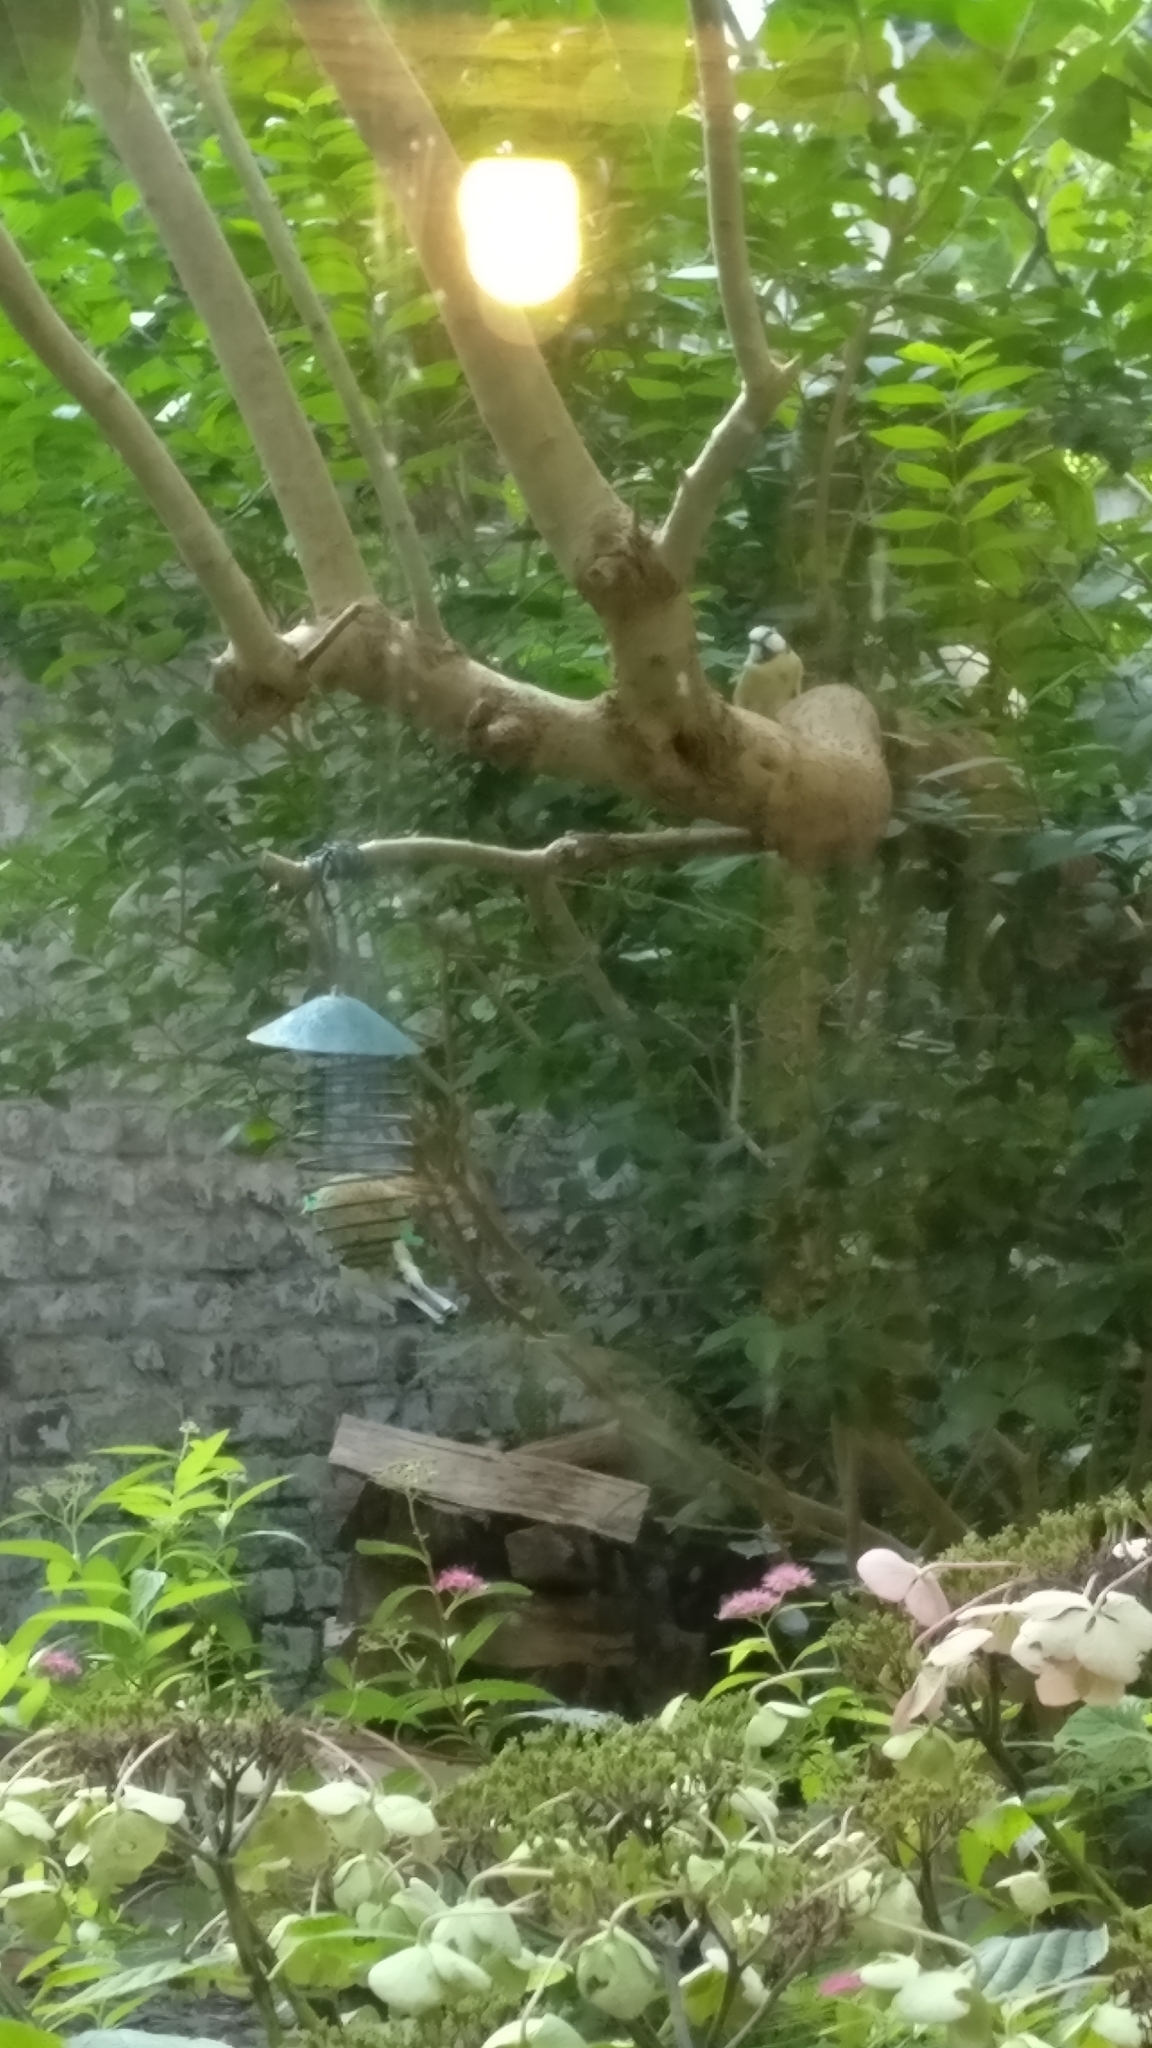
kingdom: Animalia
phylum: Chordata
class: Aves
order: Passeriformes
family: Paridae
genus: Cyanistes
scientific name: Cyanistes caeruleus
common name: Eurasian blue tit
